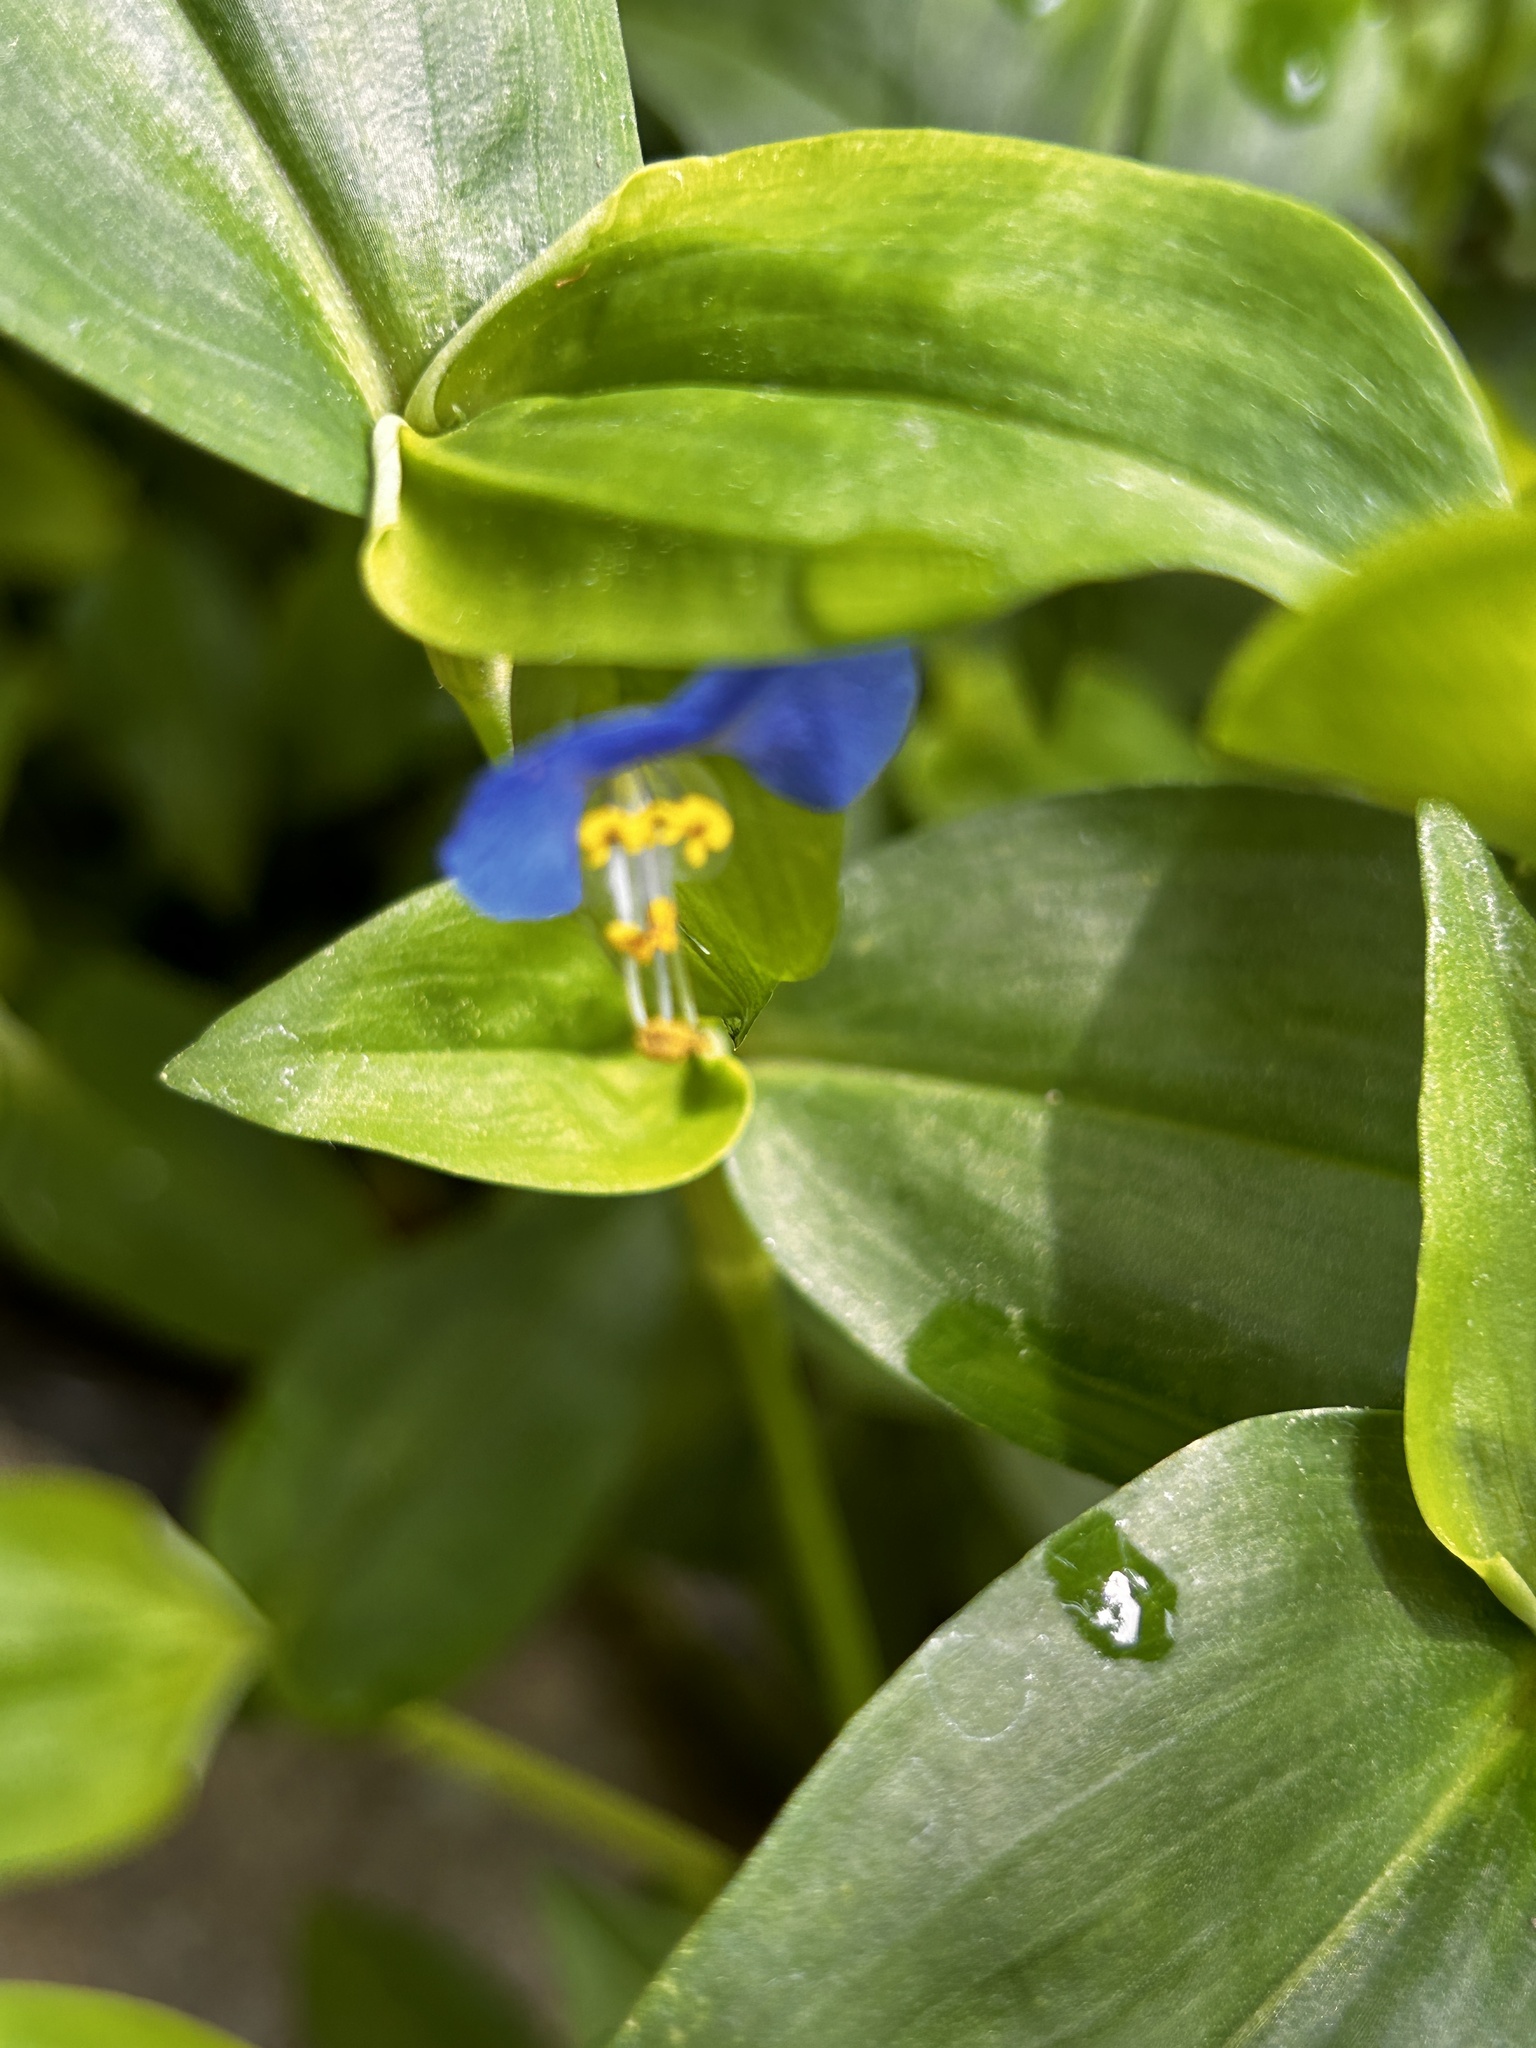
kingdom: Plantae
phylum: Tracheophyta
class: Liliopsida
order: Commelinales
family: Commelinaceae
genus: Commelina
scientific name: Commelina communis
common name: Asiatic dayflower
